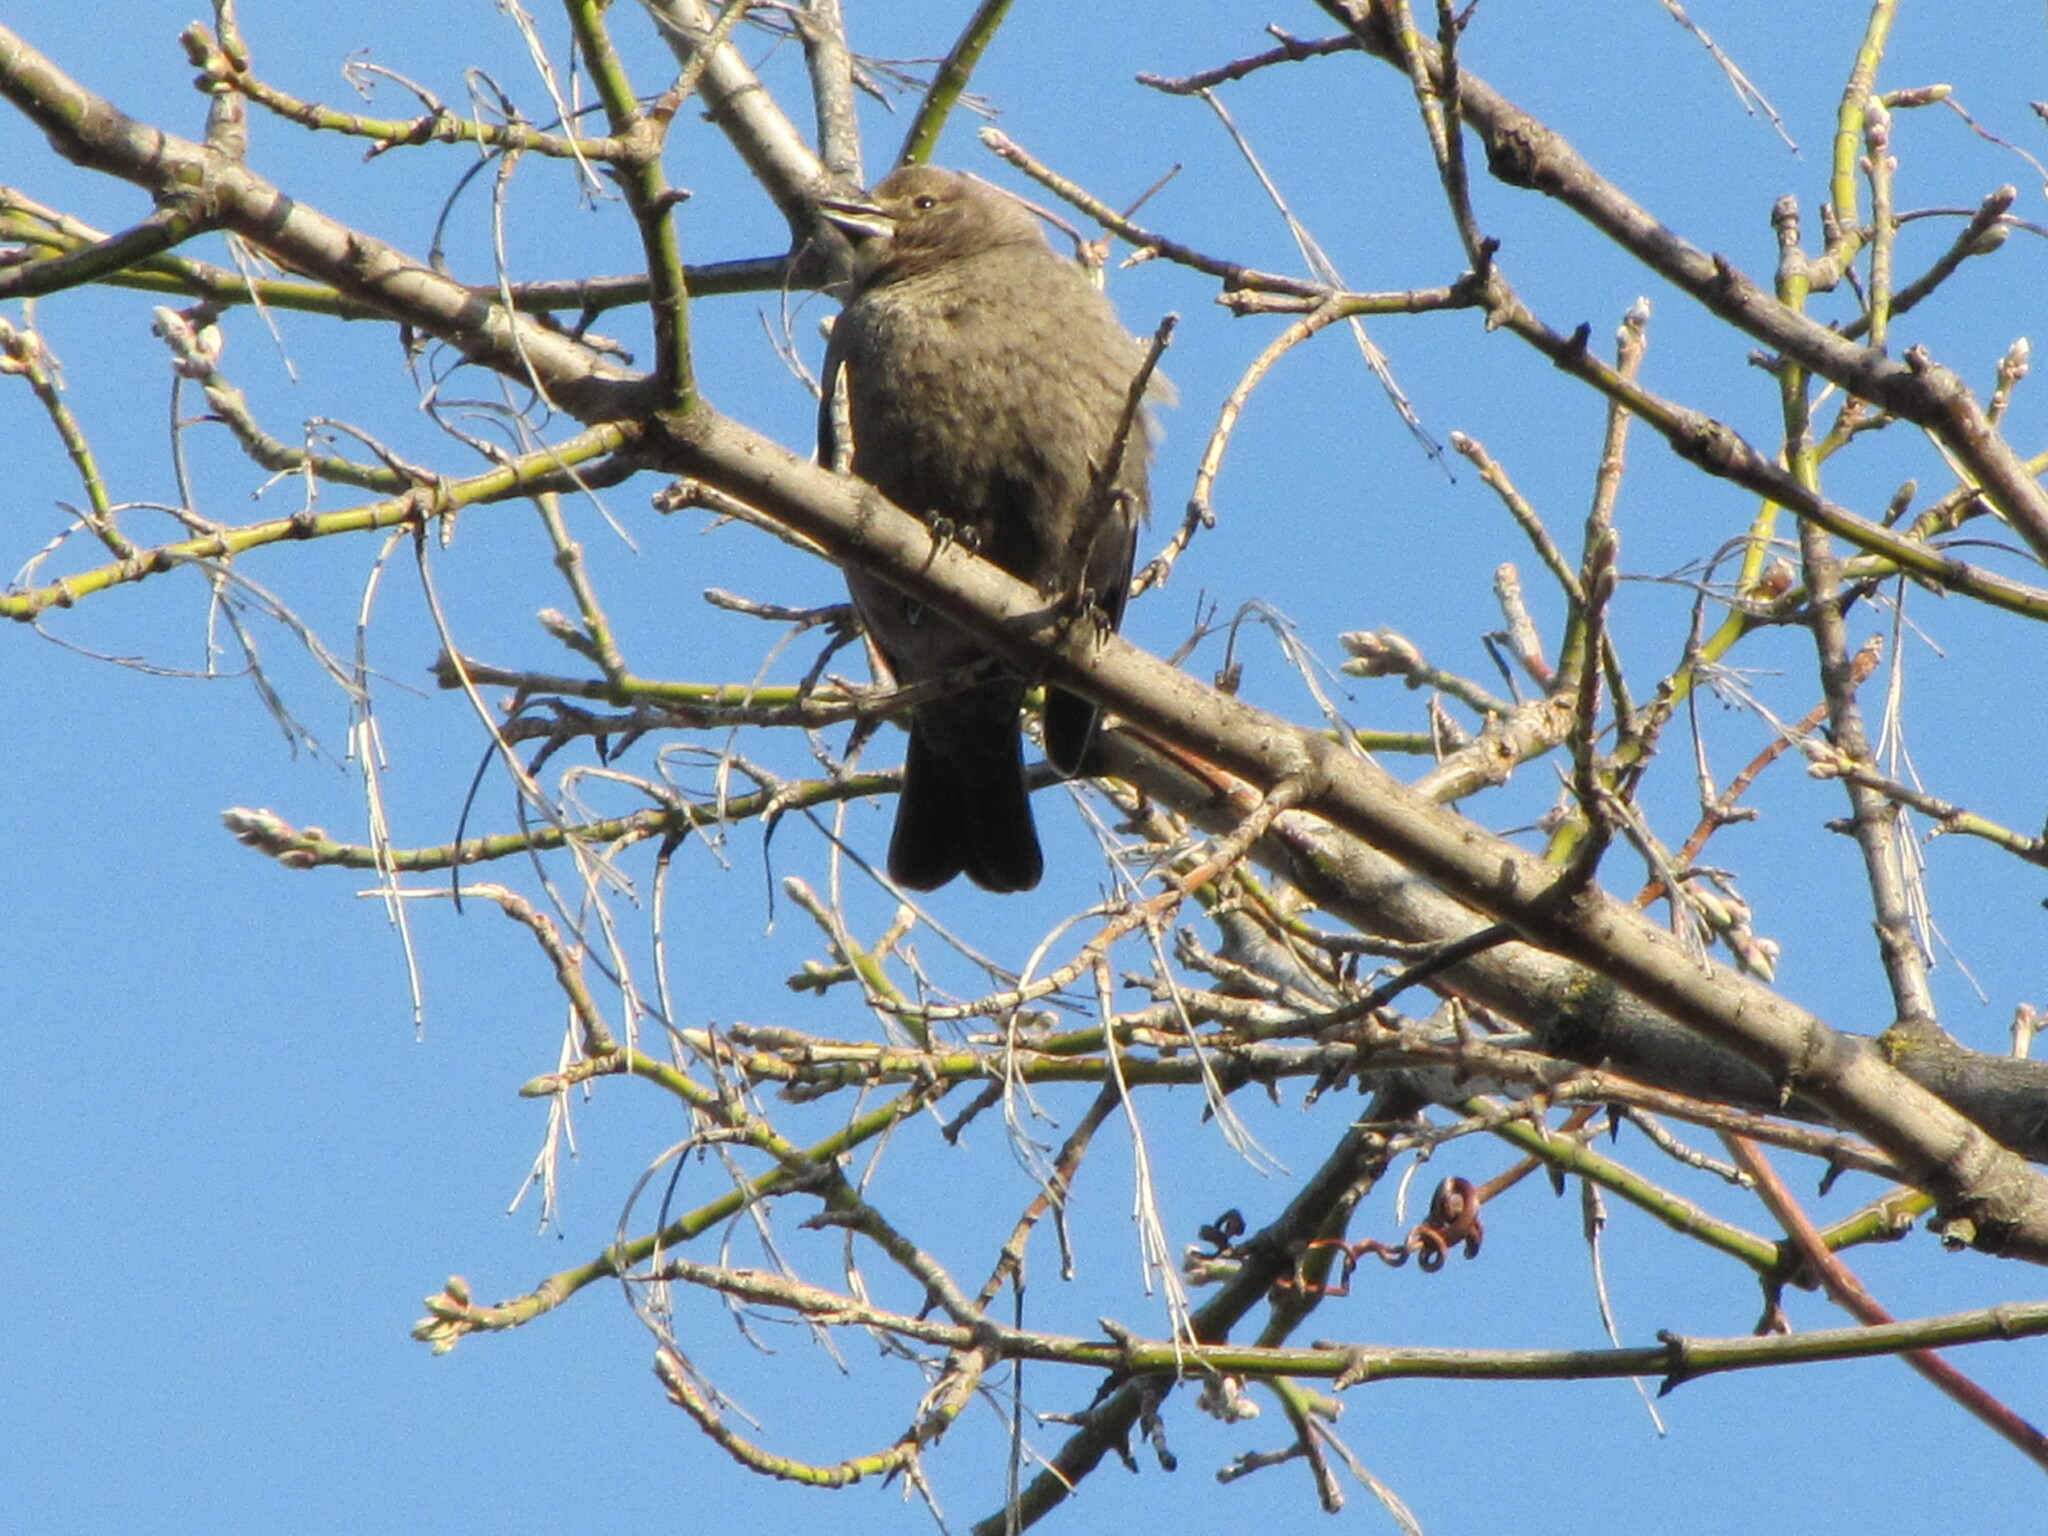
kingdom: Animalia
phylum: Chordata
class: Aves
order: Passeriformes
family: Icteridae
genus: Molothrus
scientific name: Molothrus ater
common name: Brown-headed cowbird
